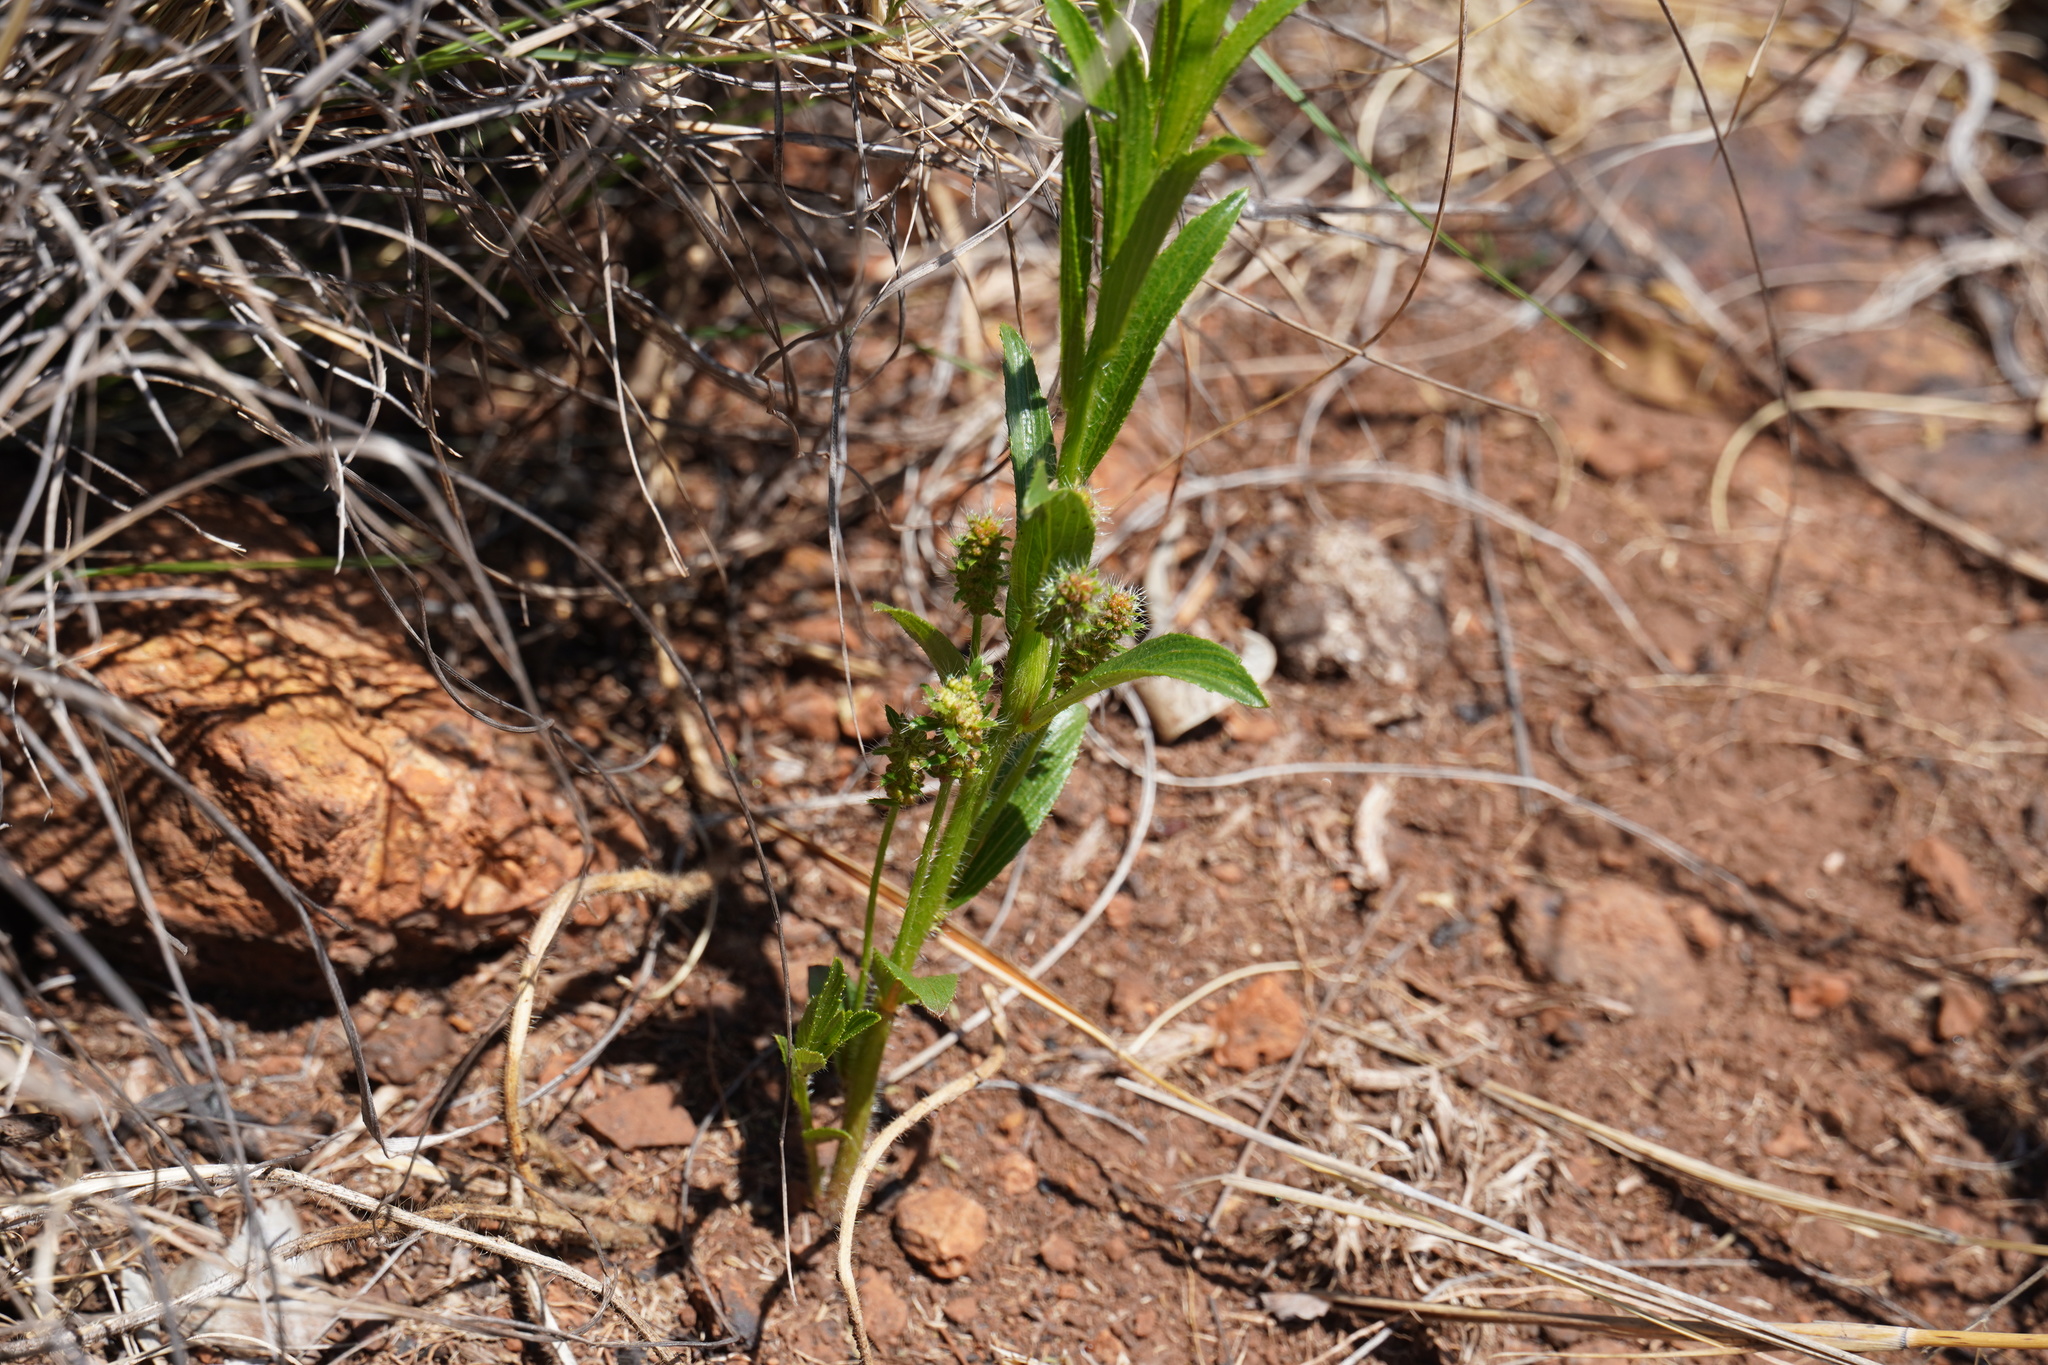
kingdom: Plantae
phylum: Tracheophyta
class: Magnoliopsida
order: Malpighiales
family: Euphorbiaceae
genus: Acalypha
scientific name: Acalypha caperonioides
